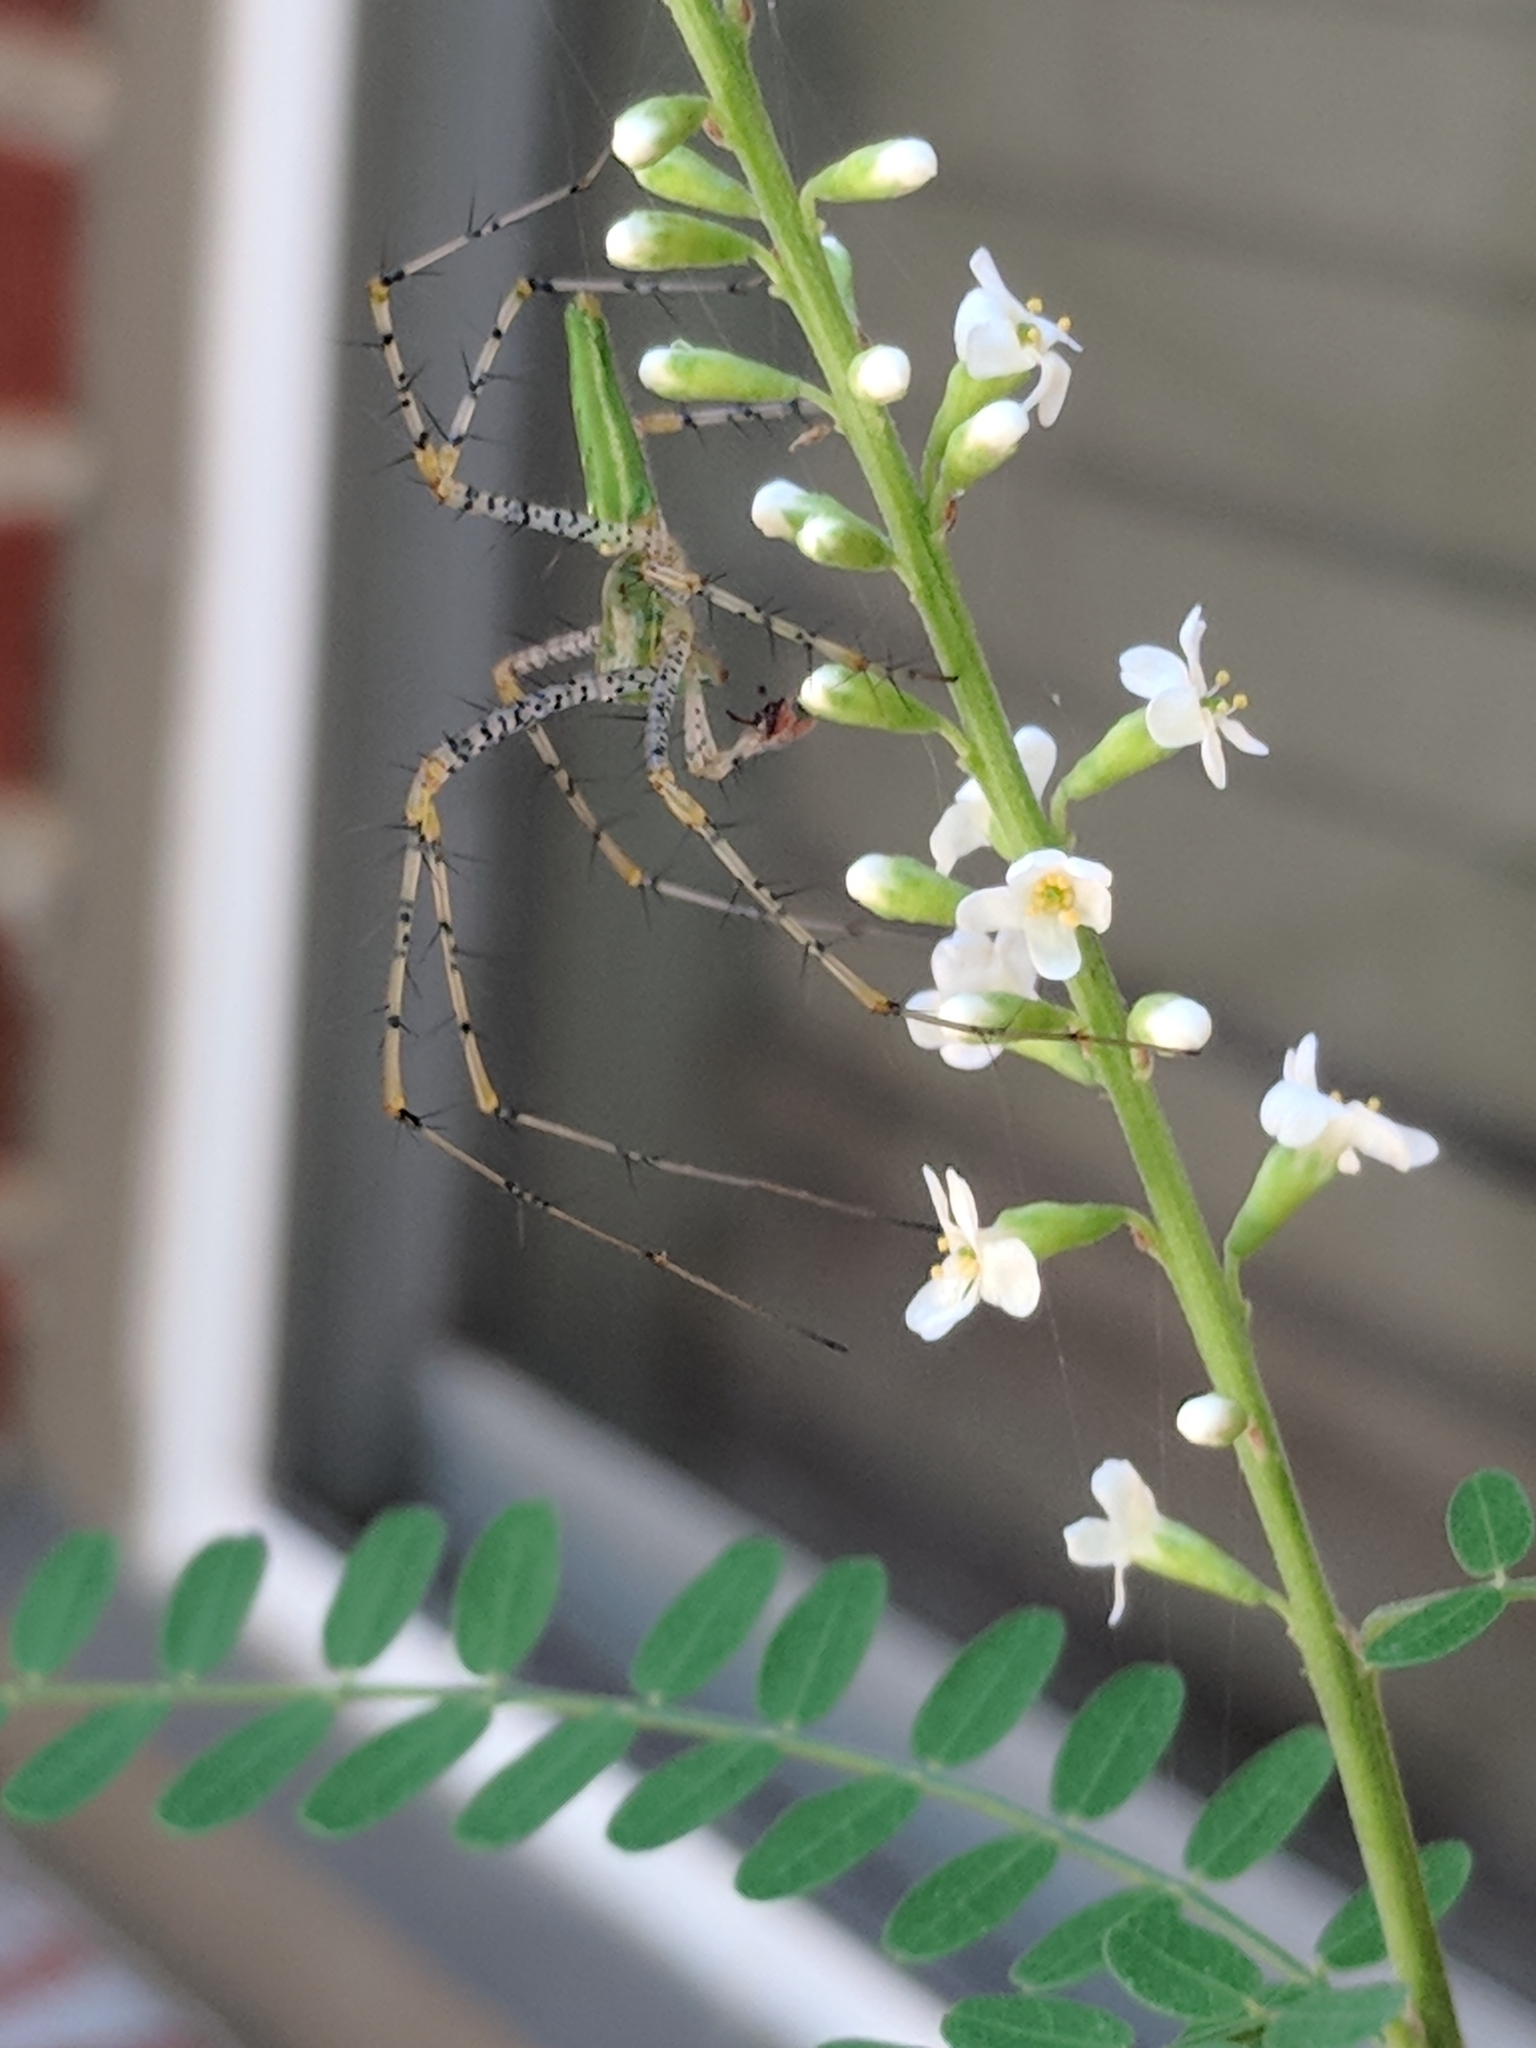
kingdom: Animalia
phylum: Arthropoda
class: Arachnida
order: Araneae
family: Oxyopidae
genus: Peucetia
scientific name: Peucetia viridans
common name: Lynx spiders
